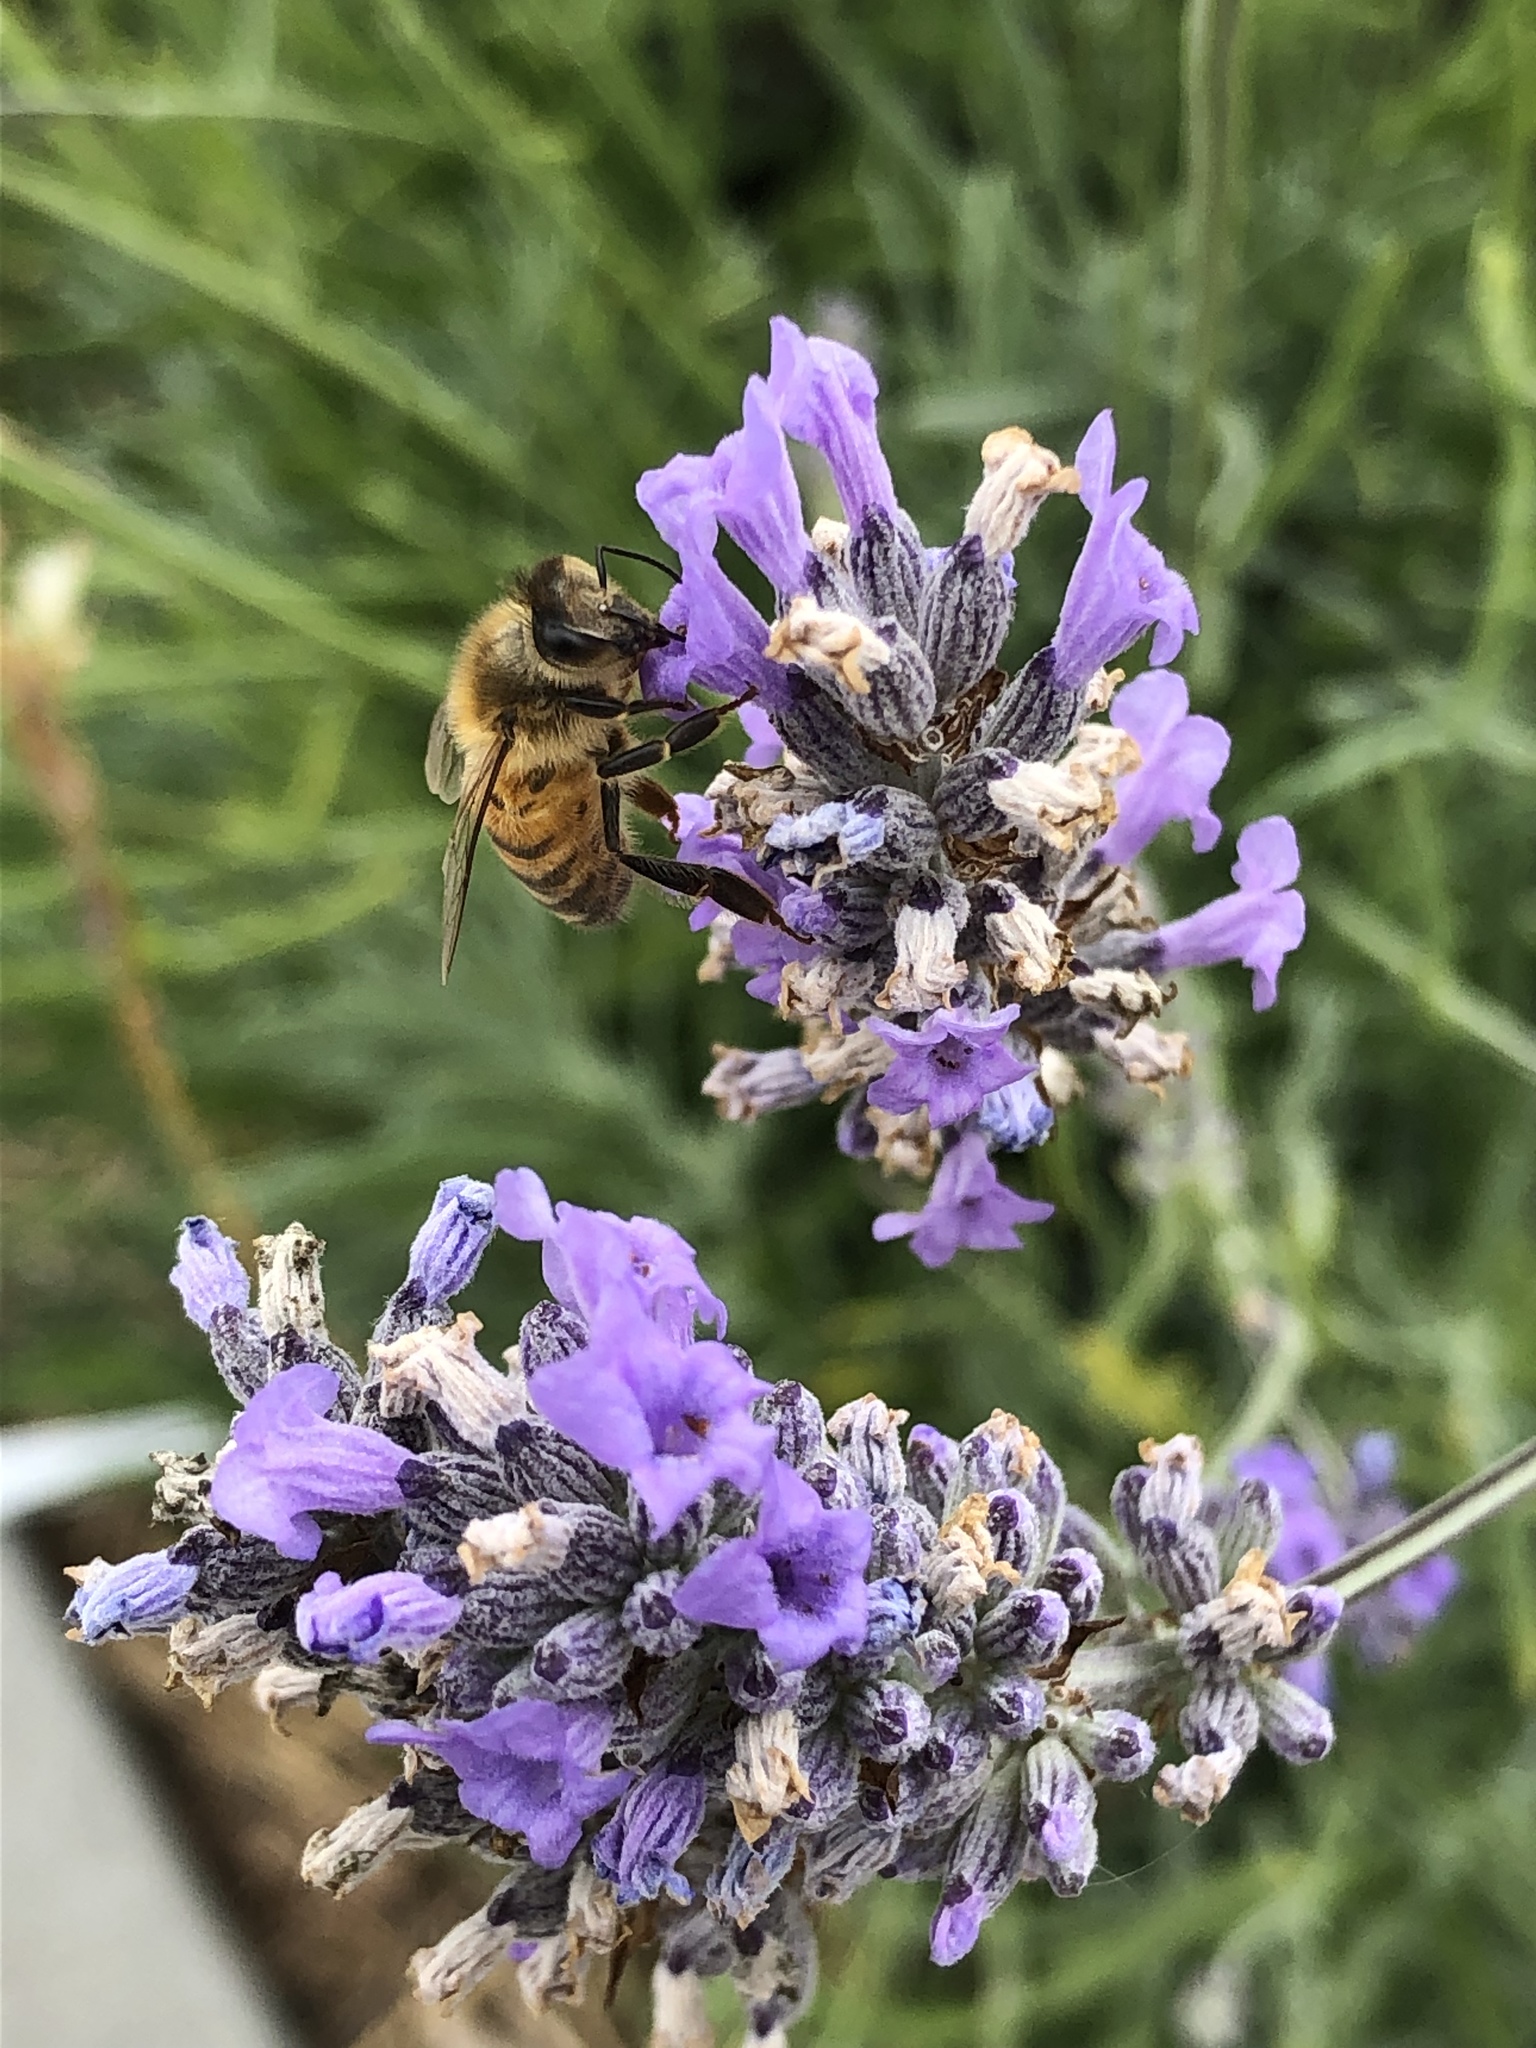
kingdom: Animalia
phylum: Arthropoda
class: Insecta
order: Hymenoptera
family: Apidae
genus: Apis
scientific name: Apis mellifera
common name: Honey bee
